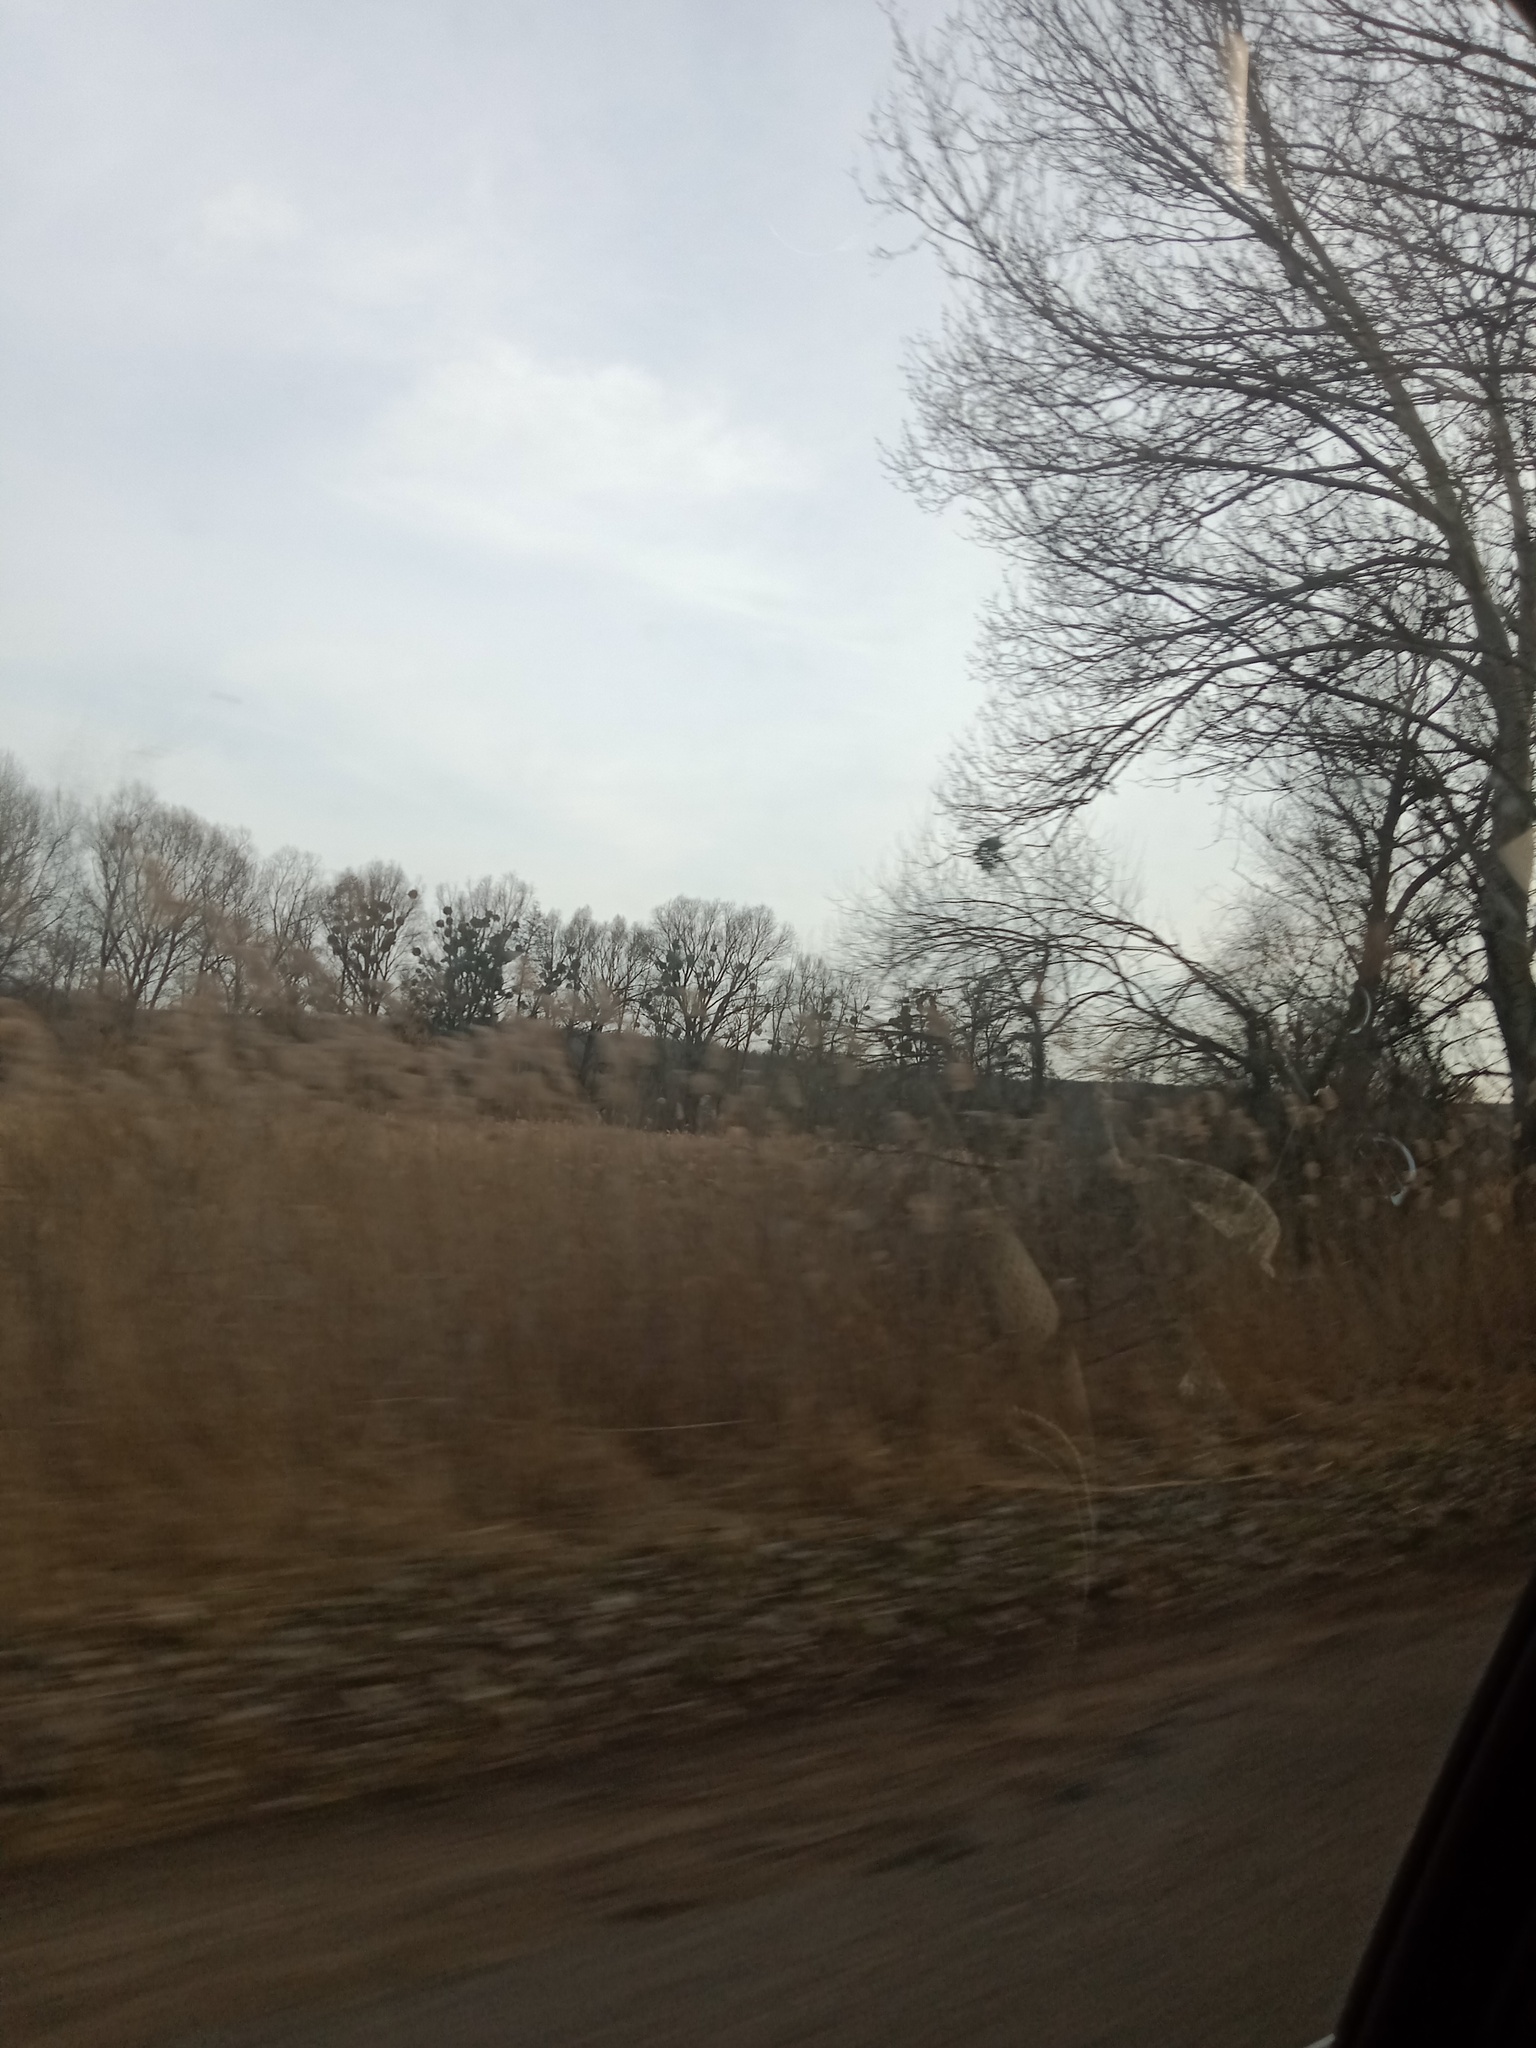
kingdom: Plantae
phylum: Tracheophyta
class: Magnoliopsida
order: Santalales
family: Viscaceae
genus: Viscum
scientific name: Viscum album
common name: Mistletoe
